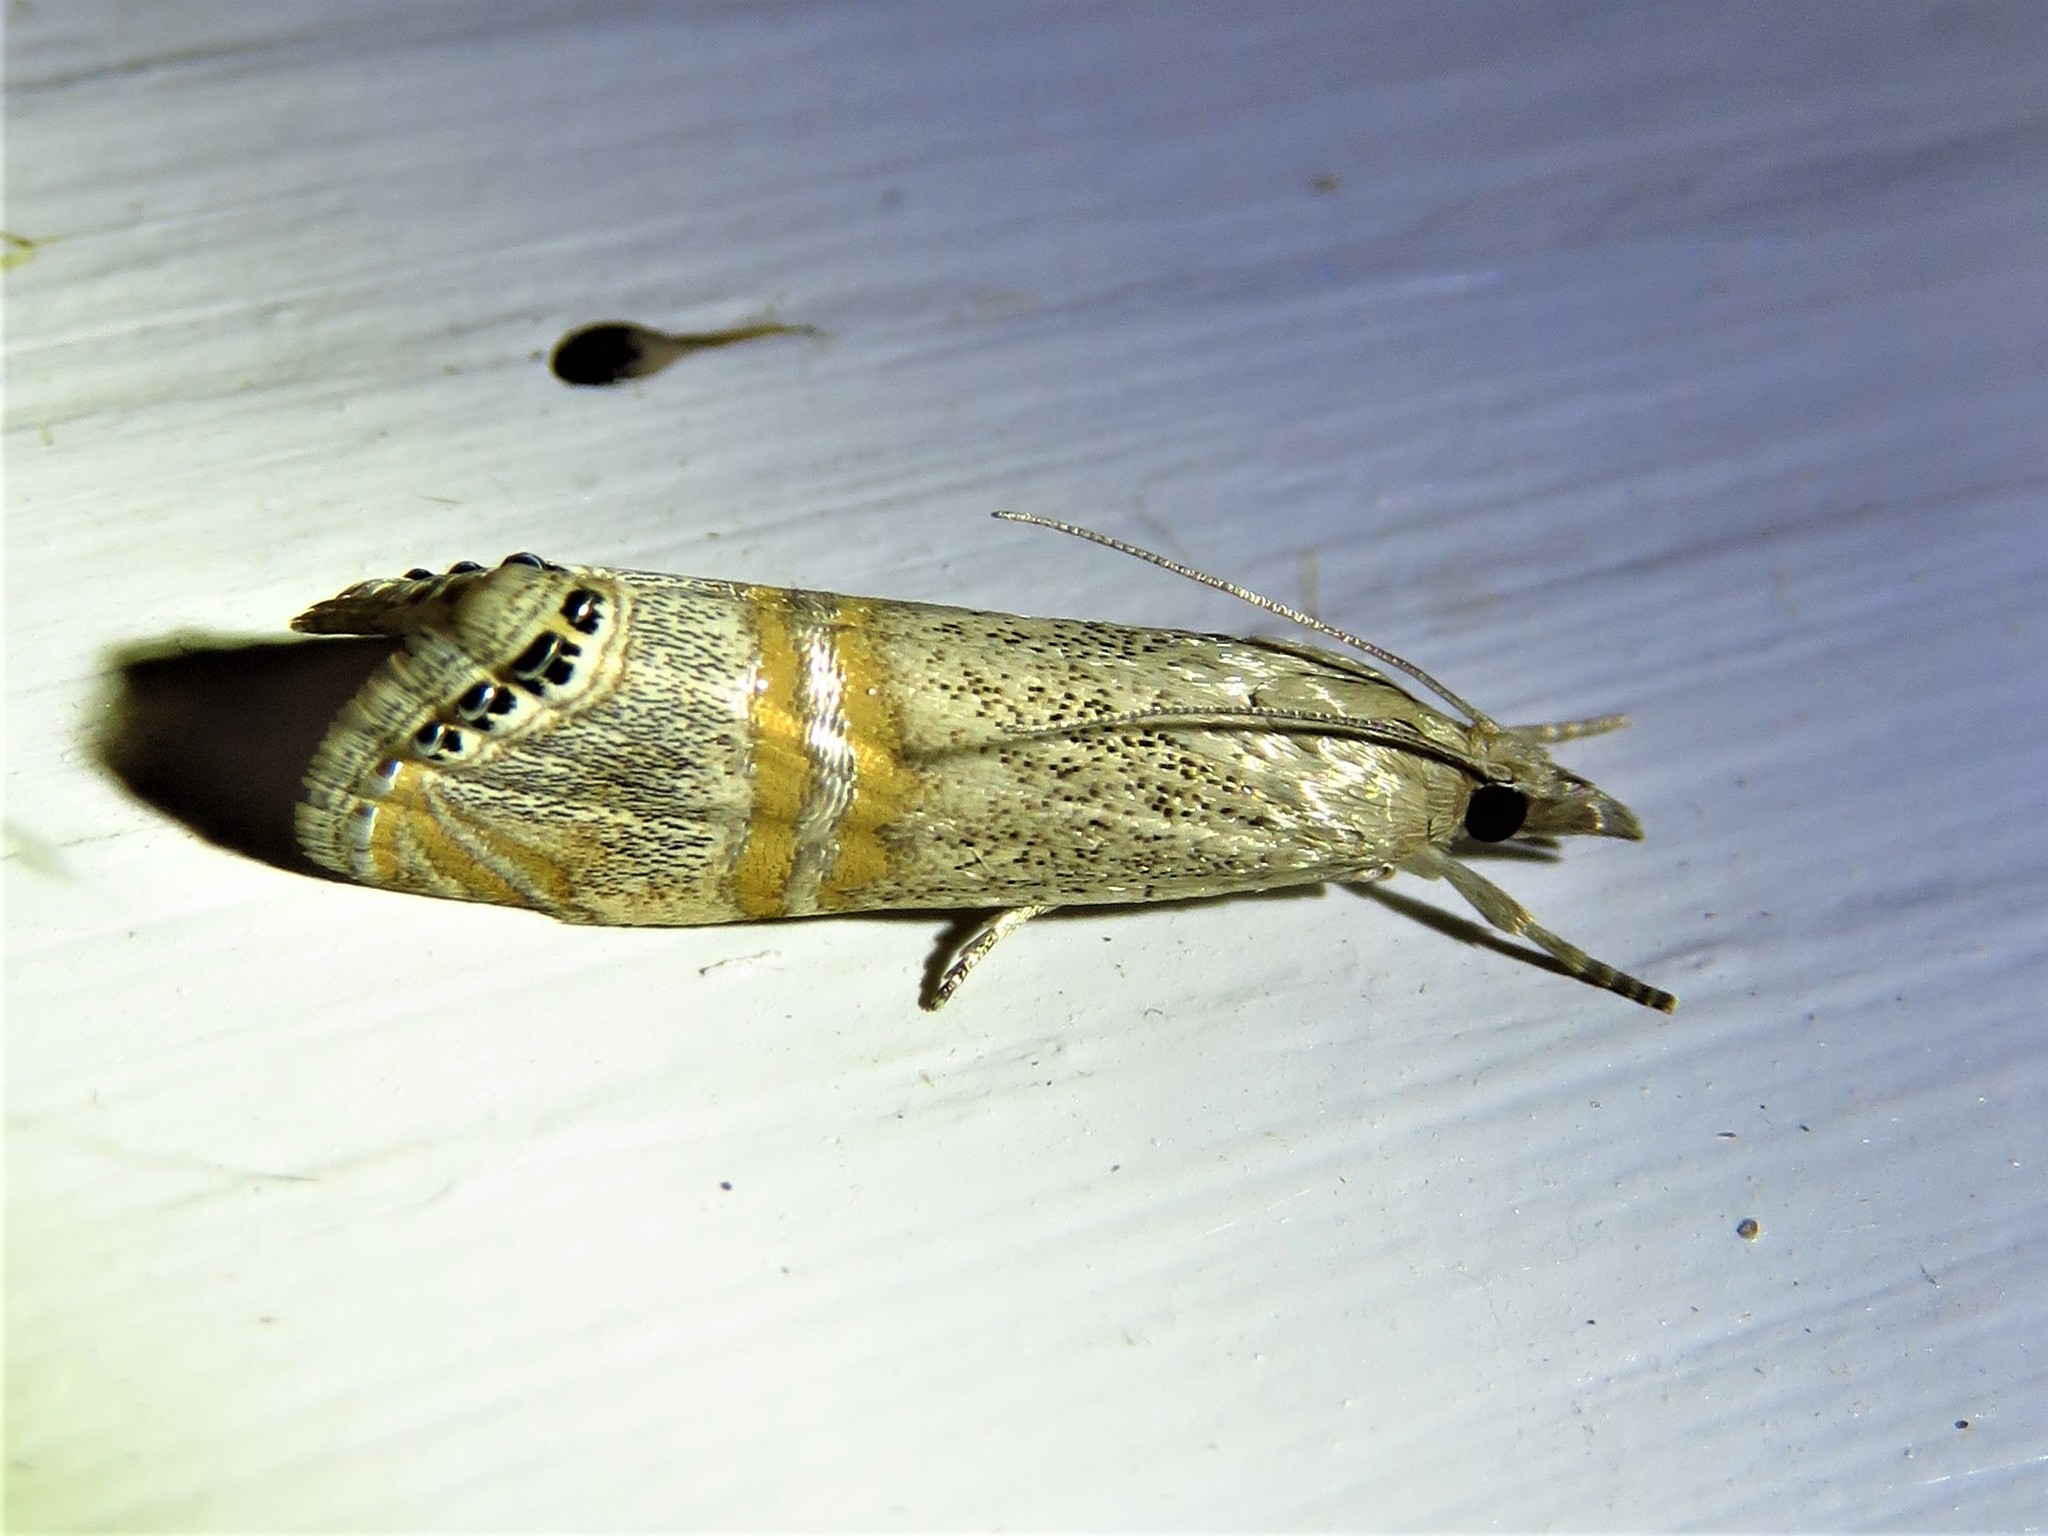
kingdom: Animalia
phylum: Arthropoda
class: Insecta
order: Lepidoptera
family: Crambidae
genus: Euchromius
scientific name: Euchromius ocellea
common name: Necklace veneer moth
